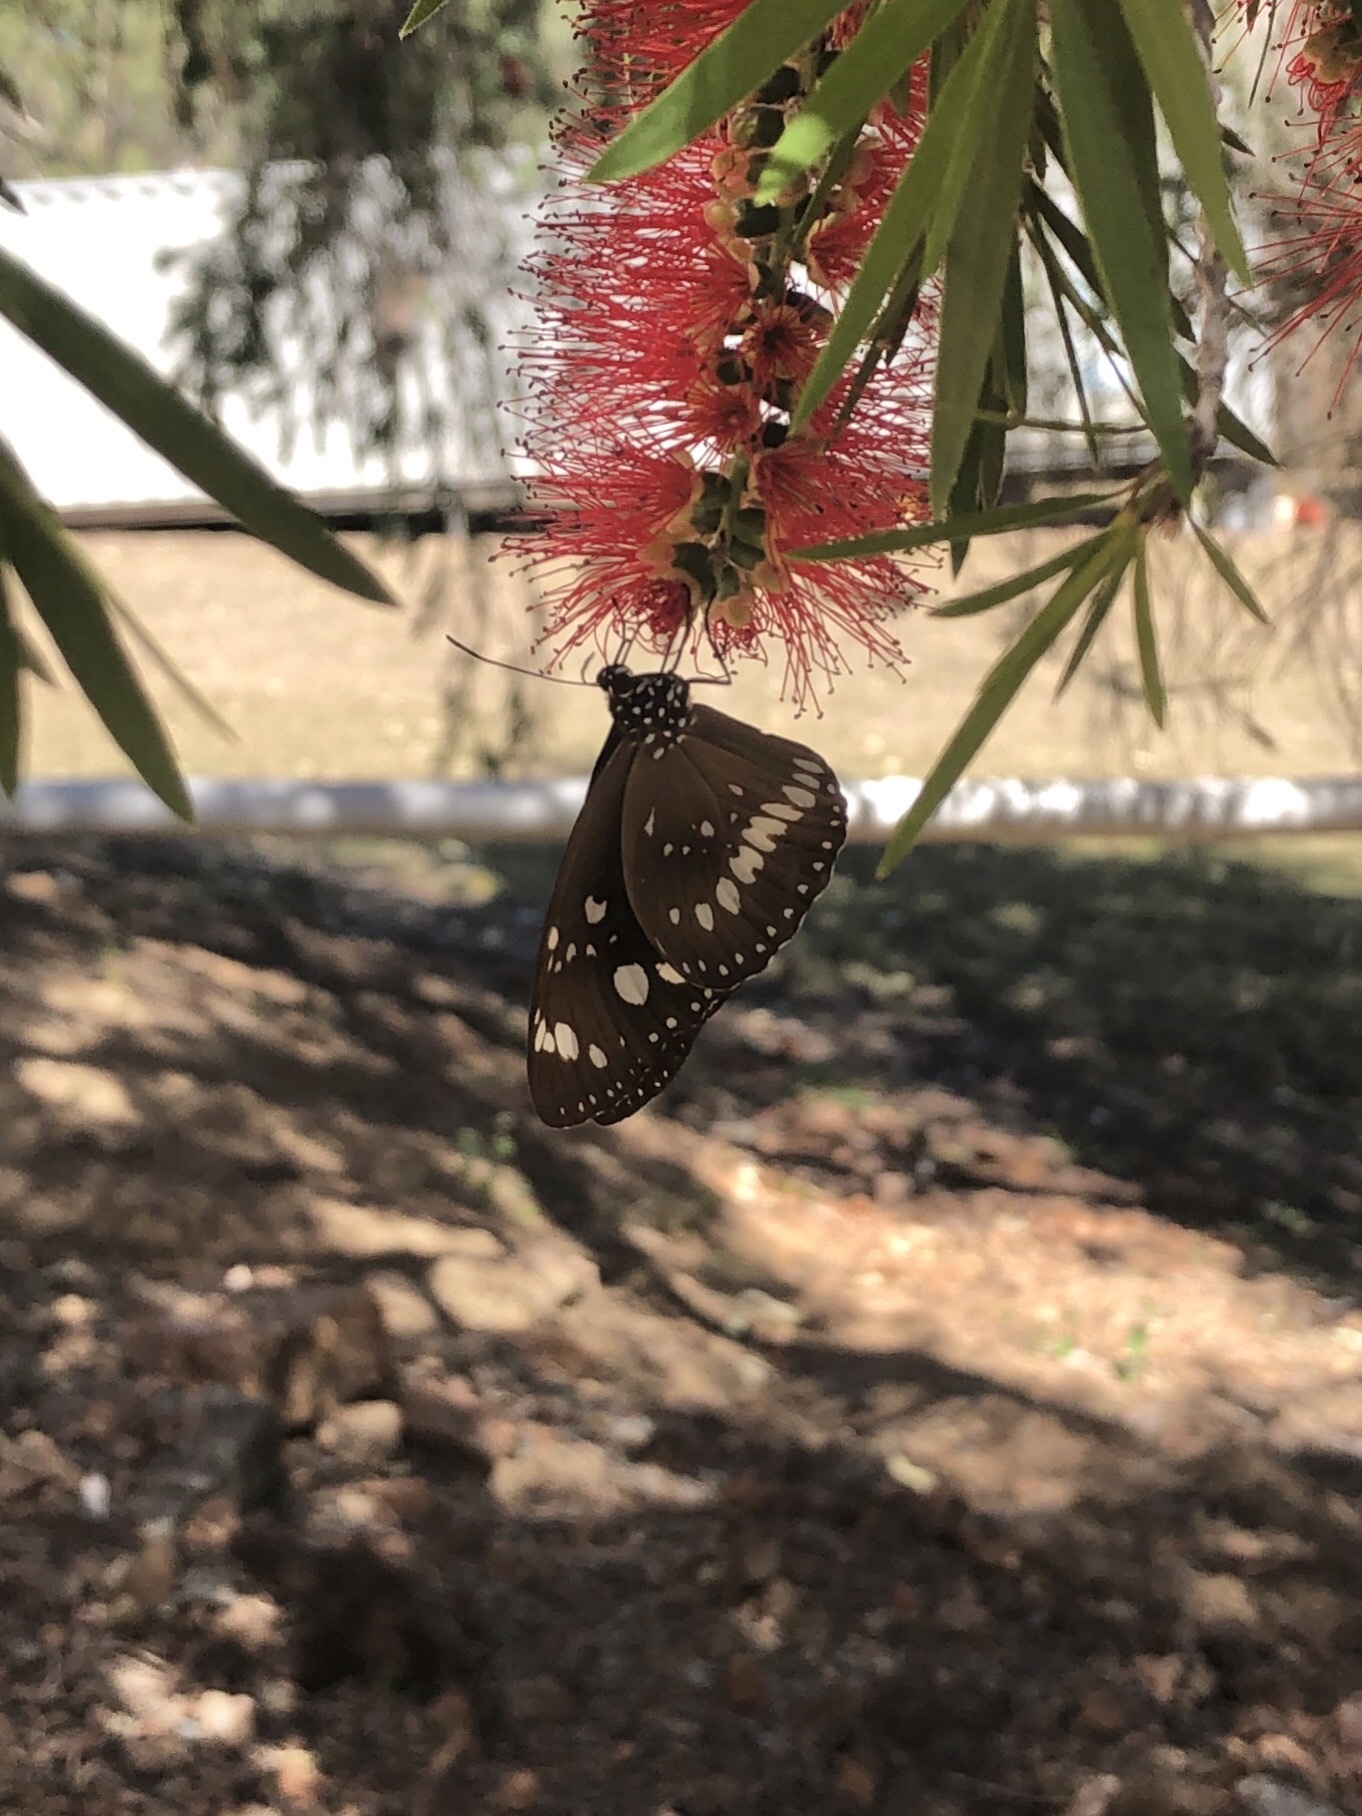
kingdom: Animalia
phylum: Arthropoda
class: Insecta
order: Lepidoptera
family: Nymphalidae
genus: Euploea
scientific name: Euploea core
